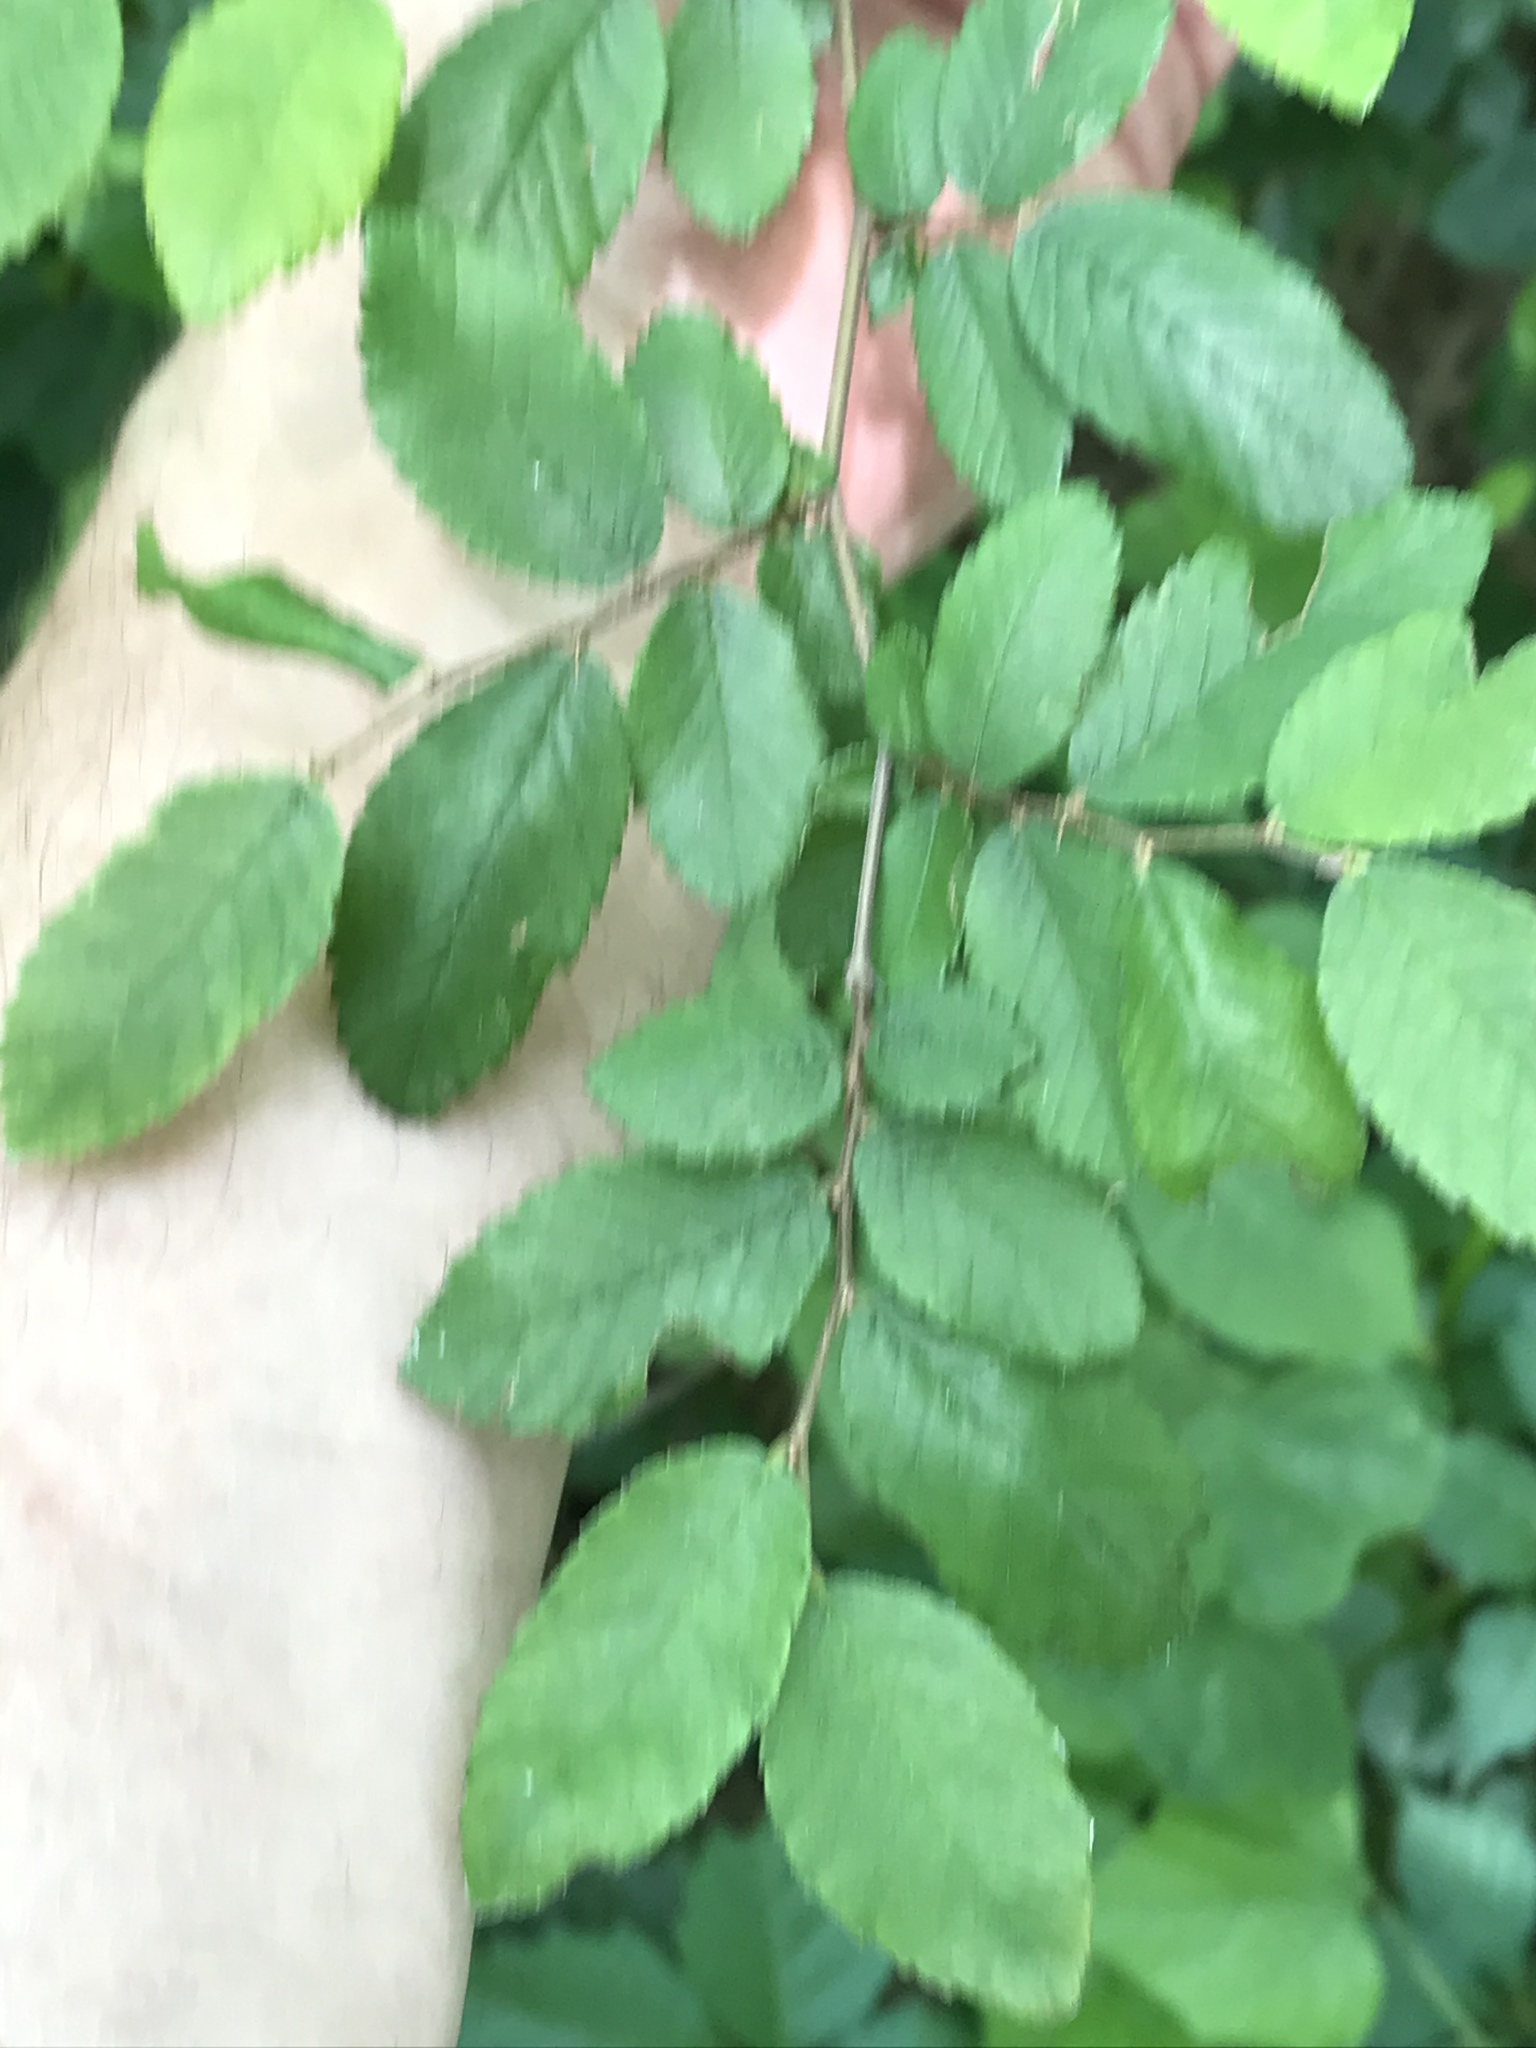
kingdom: Plantae
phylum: Tracheophyta
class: Magnoliopsida
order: Rosales
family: Ulmaceae
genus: Ulmus
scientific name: Ulmus crassifolia
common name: Basket elm
